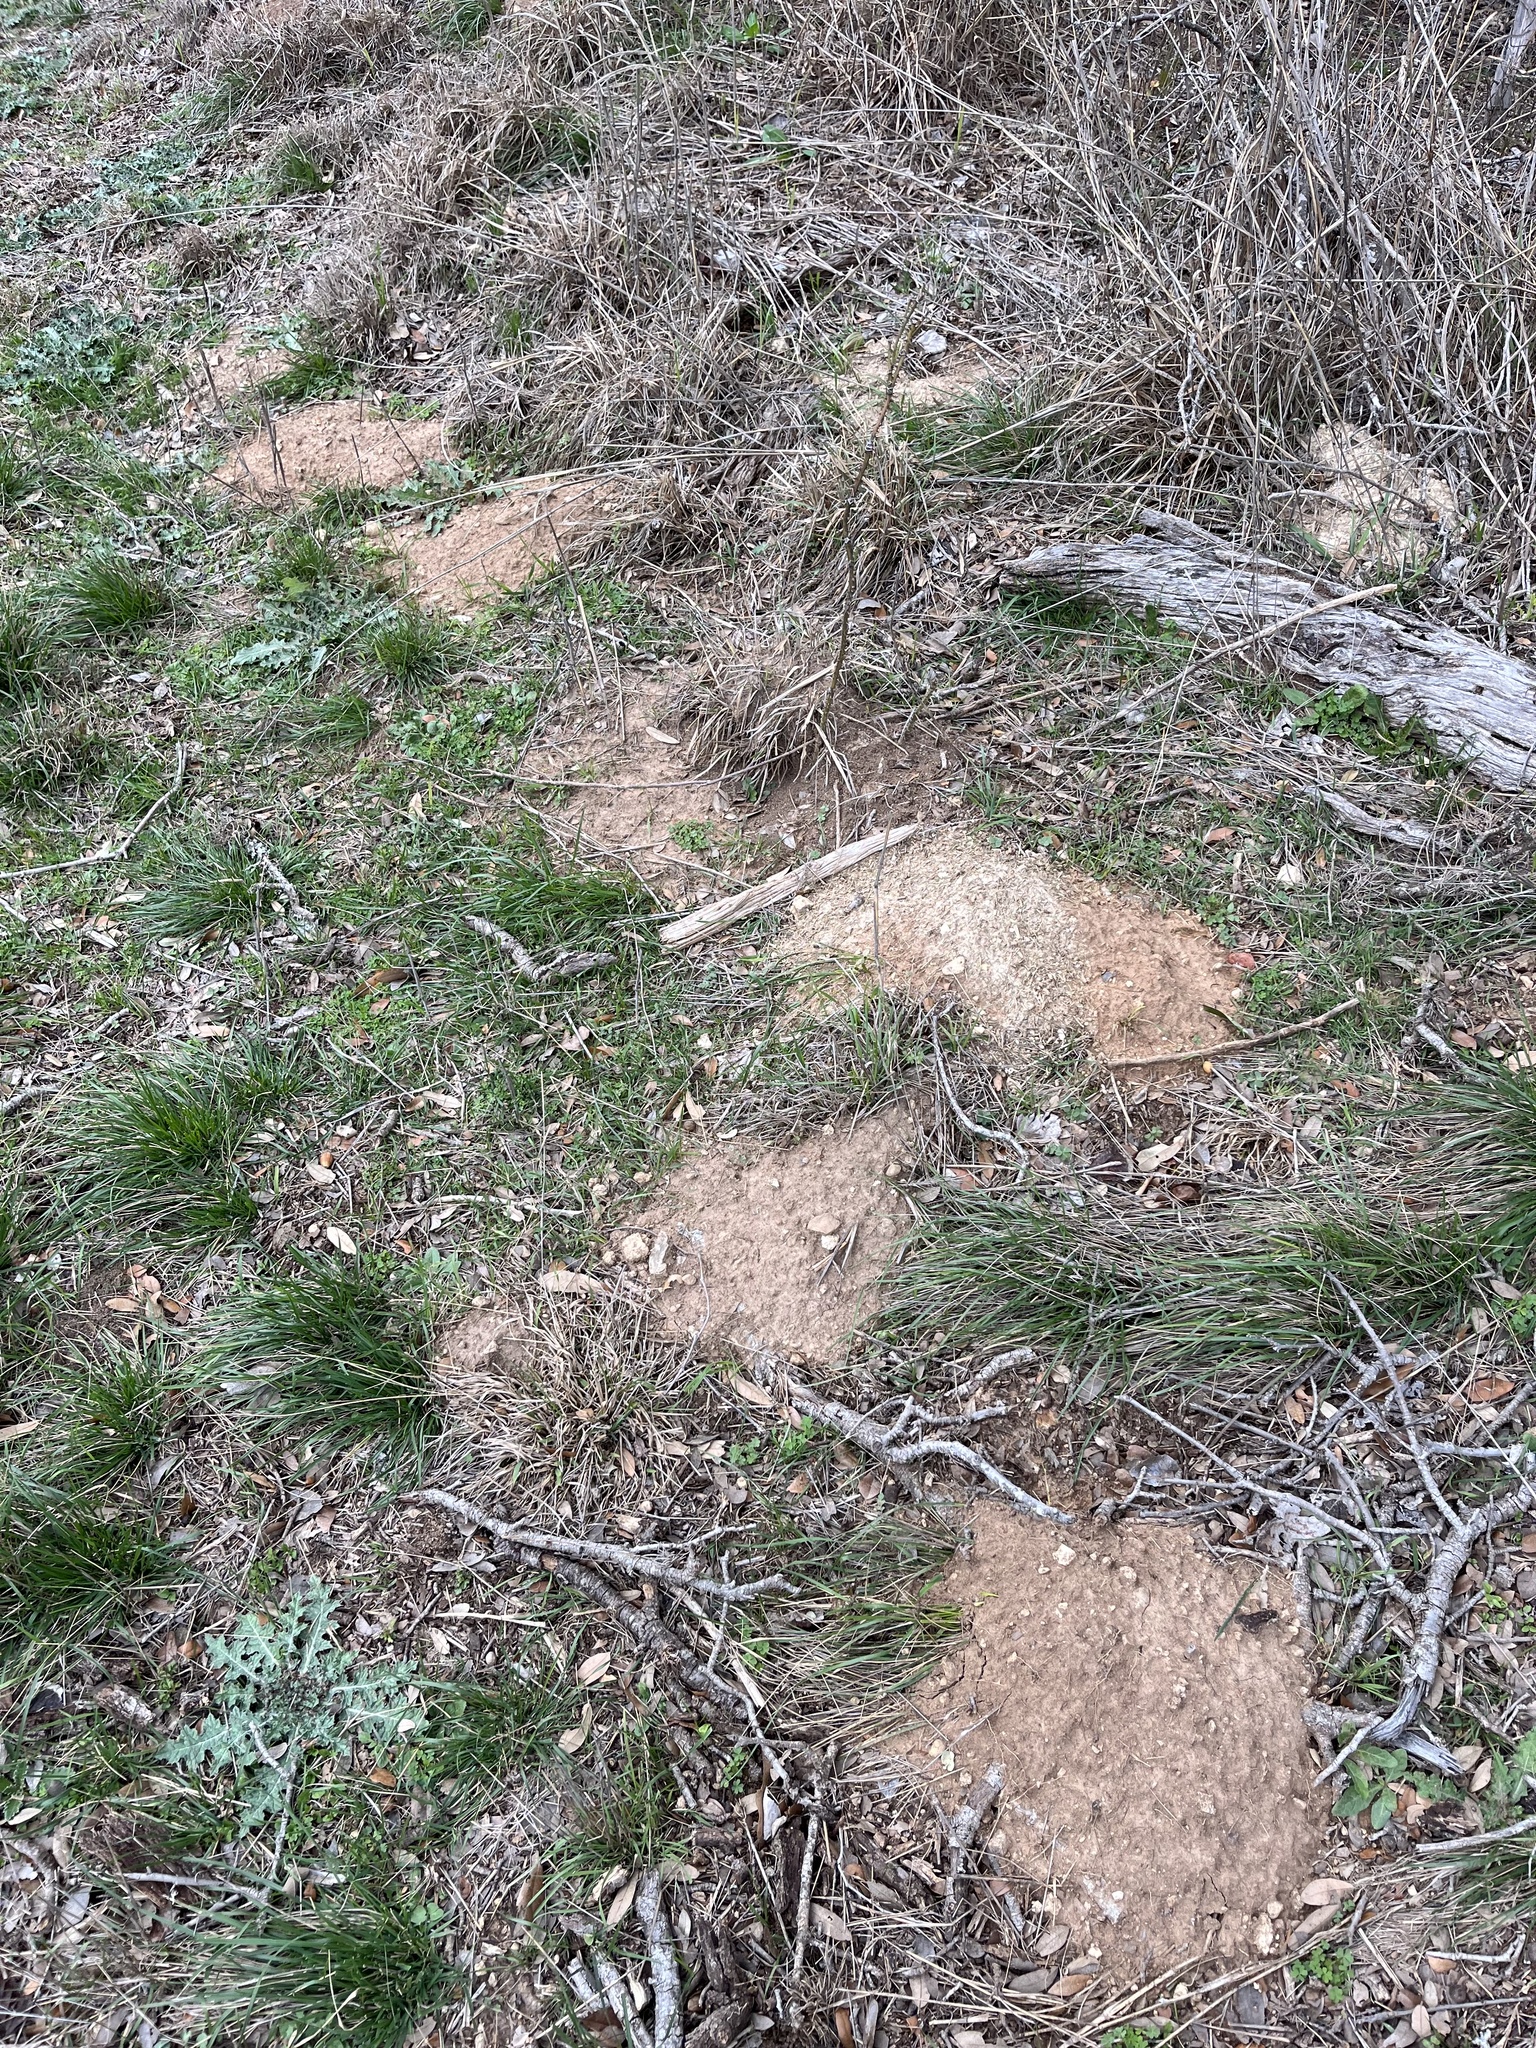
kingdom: Animalia
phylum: Chordata
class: Mammalia
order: Rodentia
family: Geomyidae
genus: Geomys
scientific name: Geomys texensis
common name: Llano pocket gopher
